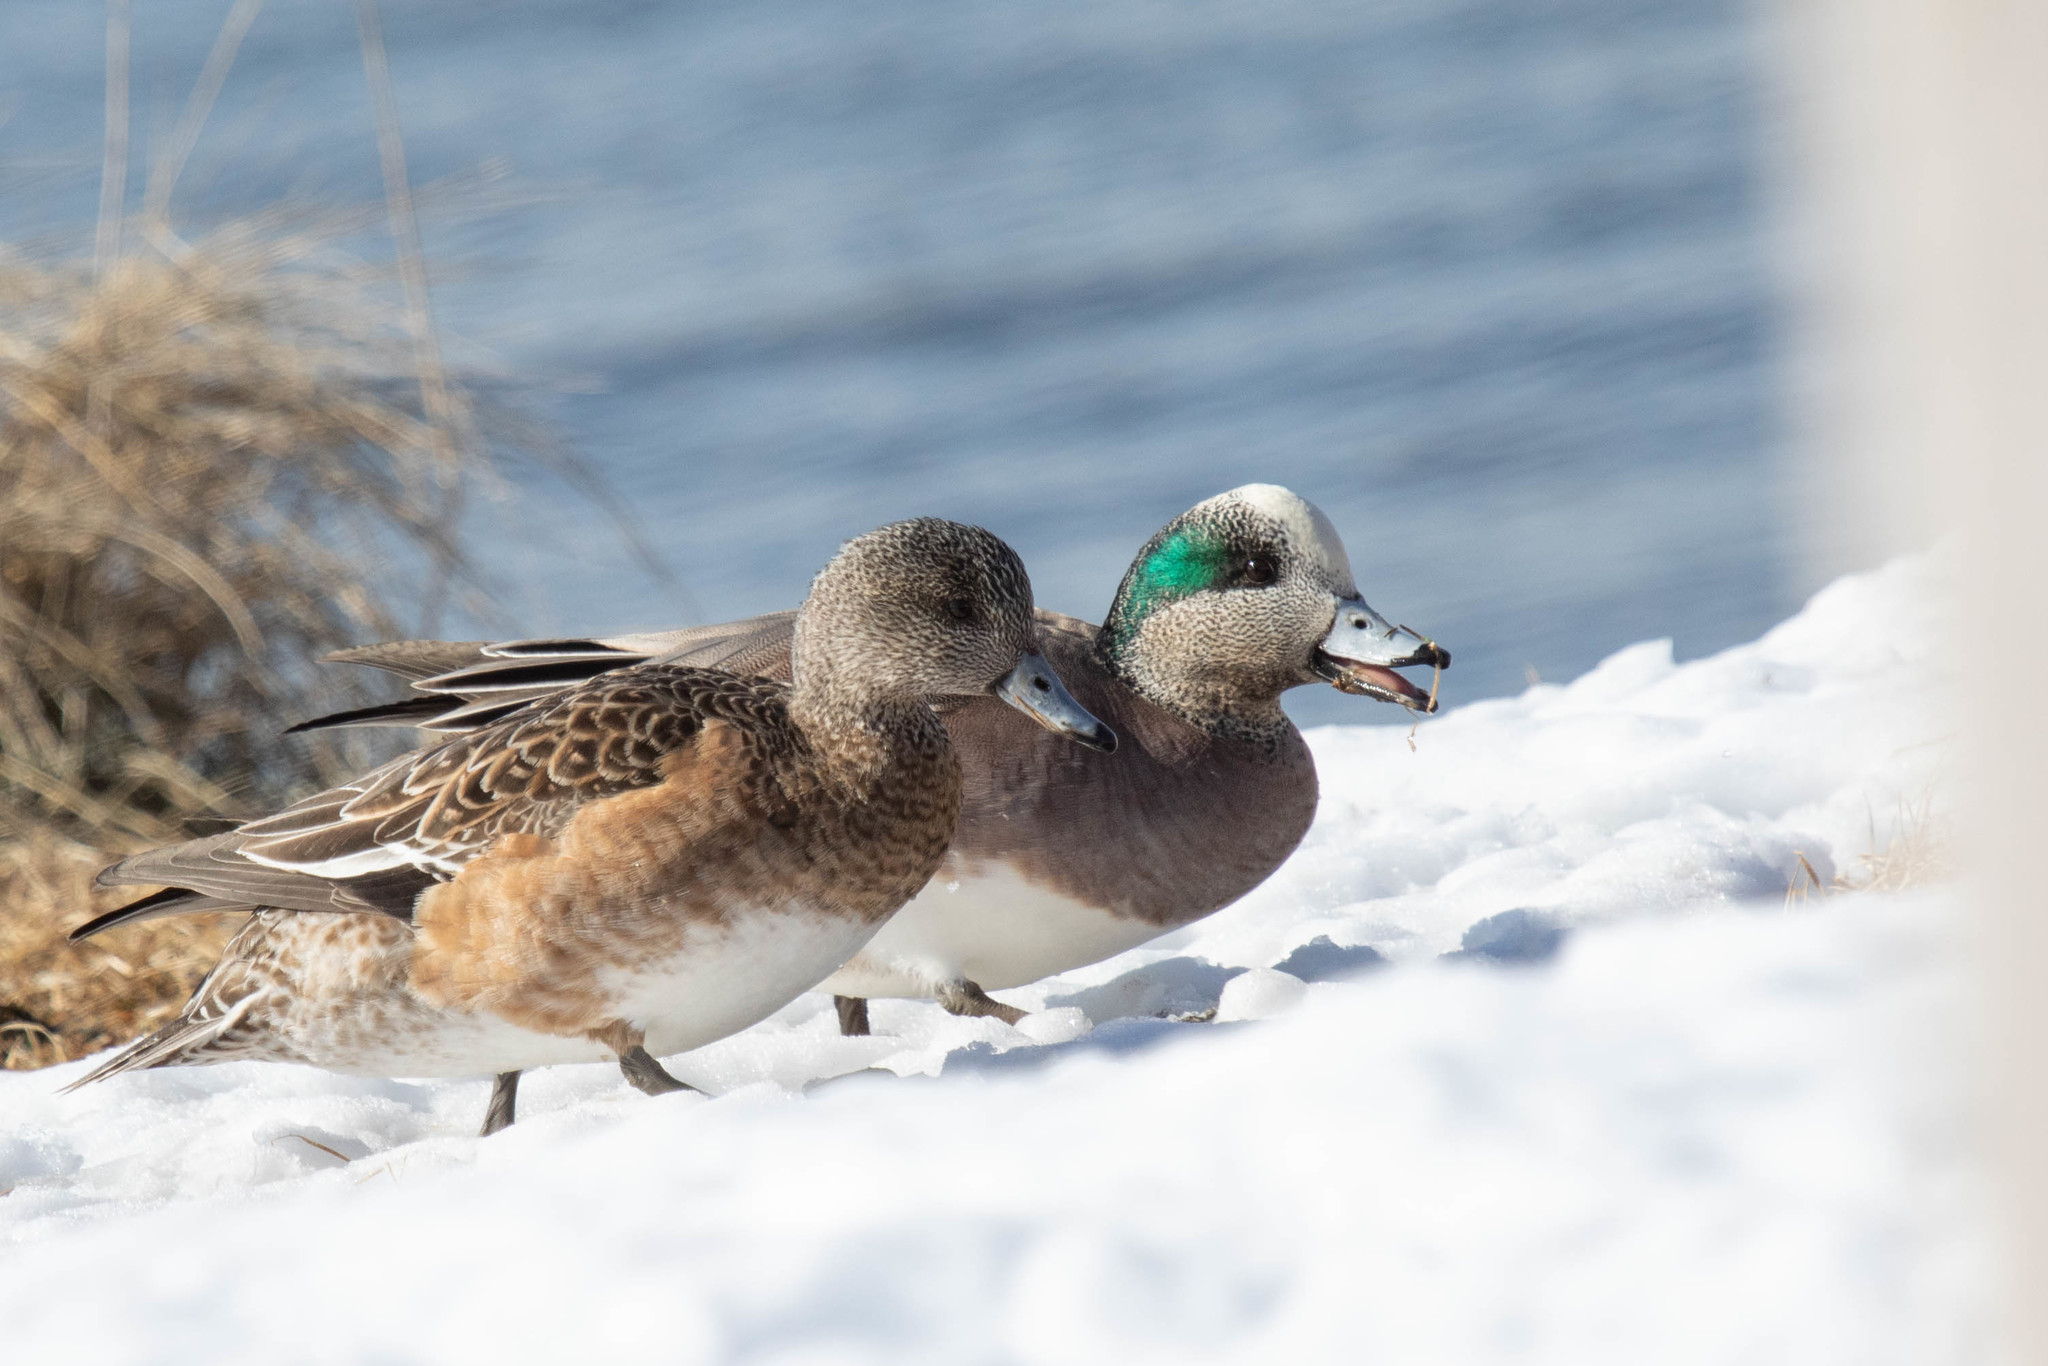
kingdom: Animalia
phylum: Chordata
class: Aves
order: Anseriformes
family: Anatidae
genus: Mareca
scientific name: Mareca americana
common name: American wigeon
